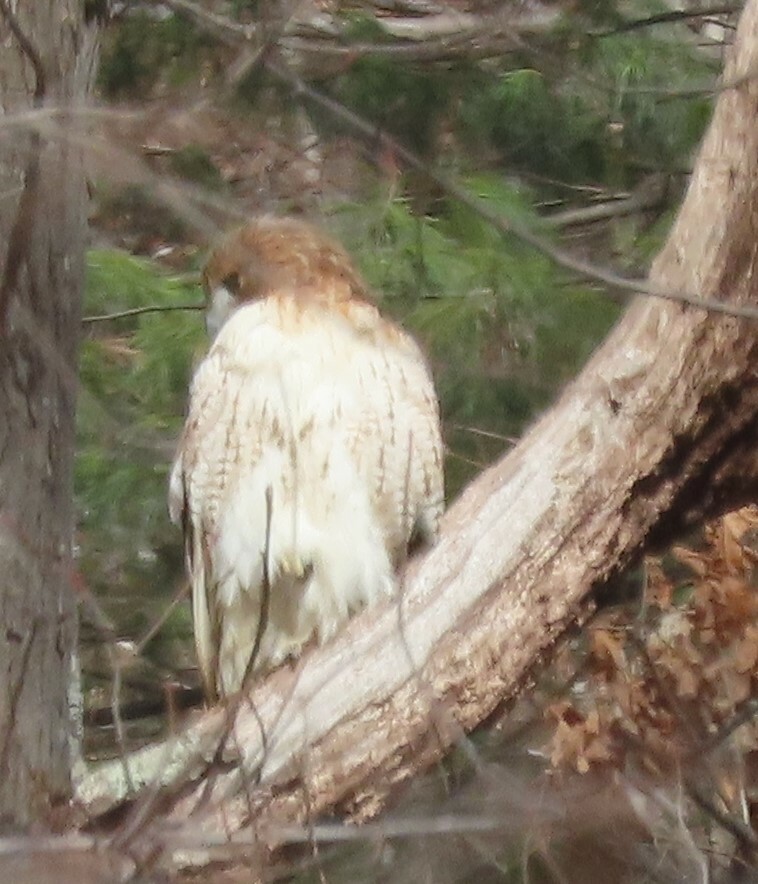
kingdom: Animalia
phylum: Chordata
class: Aves
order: Accipitriformes
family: Accipitridae
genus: Buteo
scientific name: Buteo jamaicensis
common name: Red-tailed hawk
